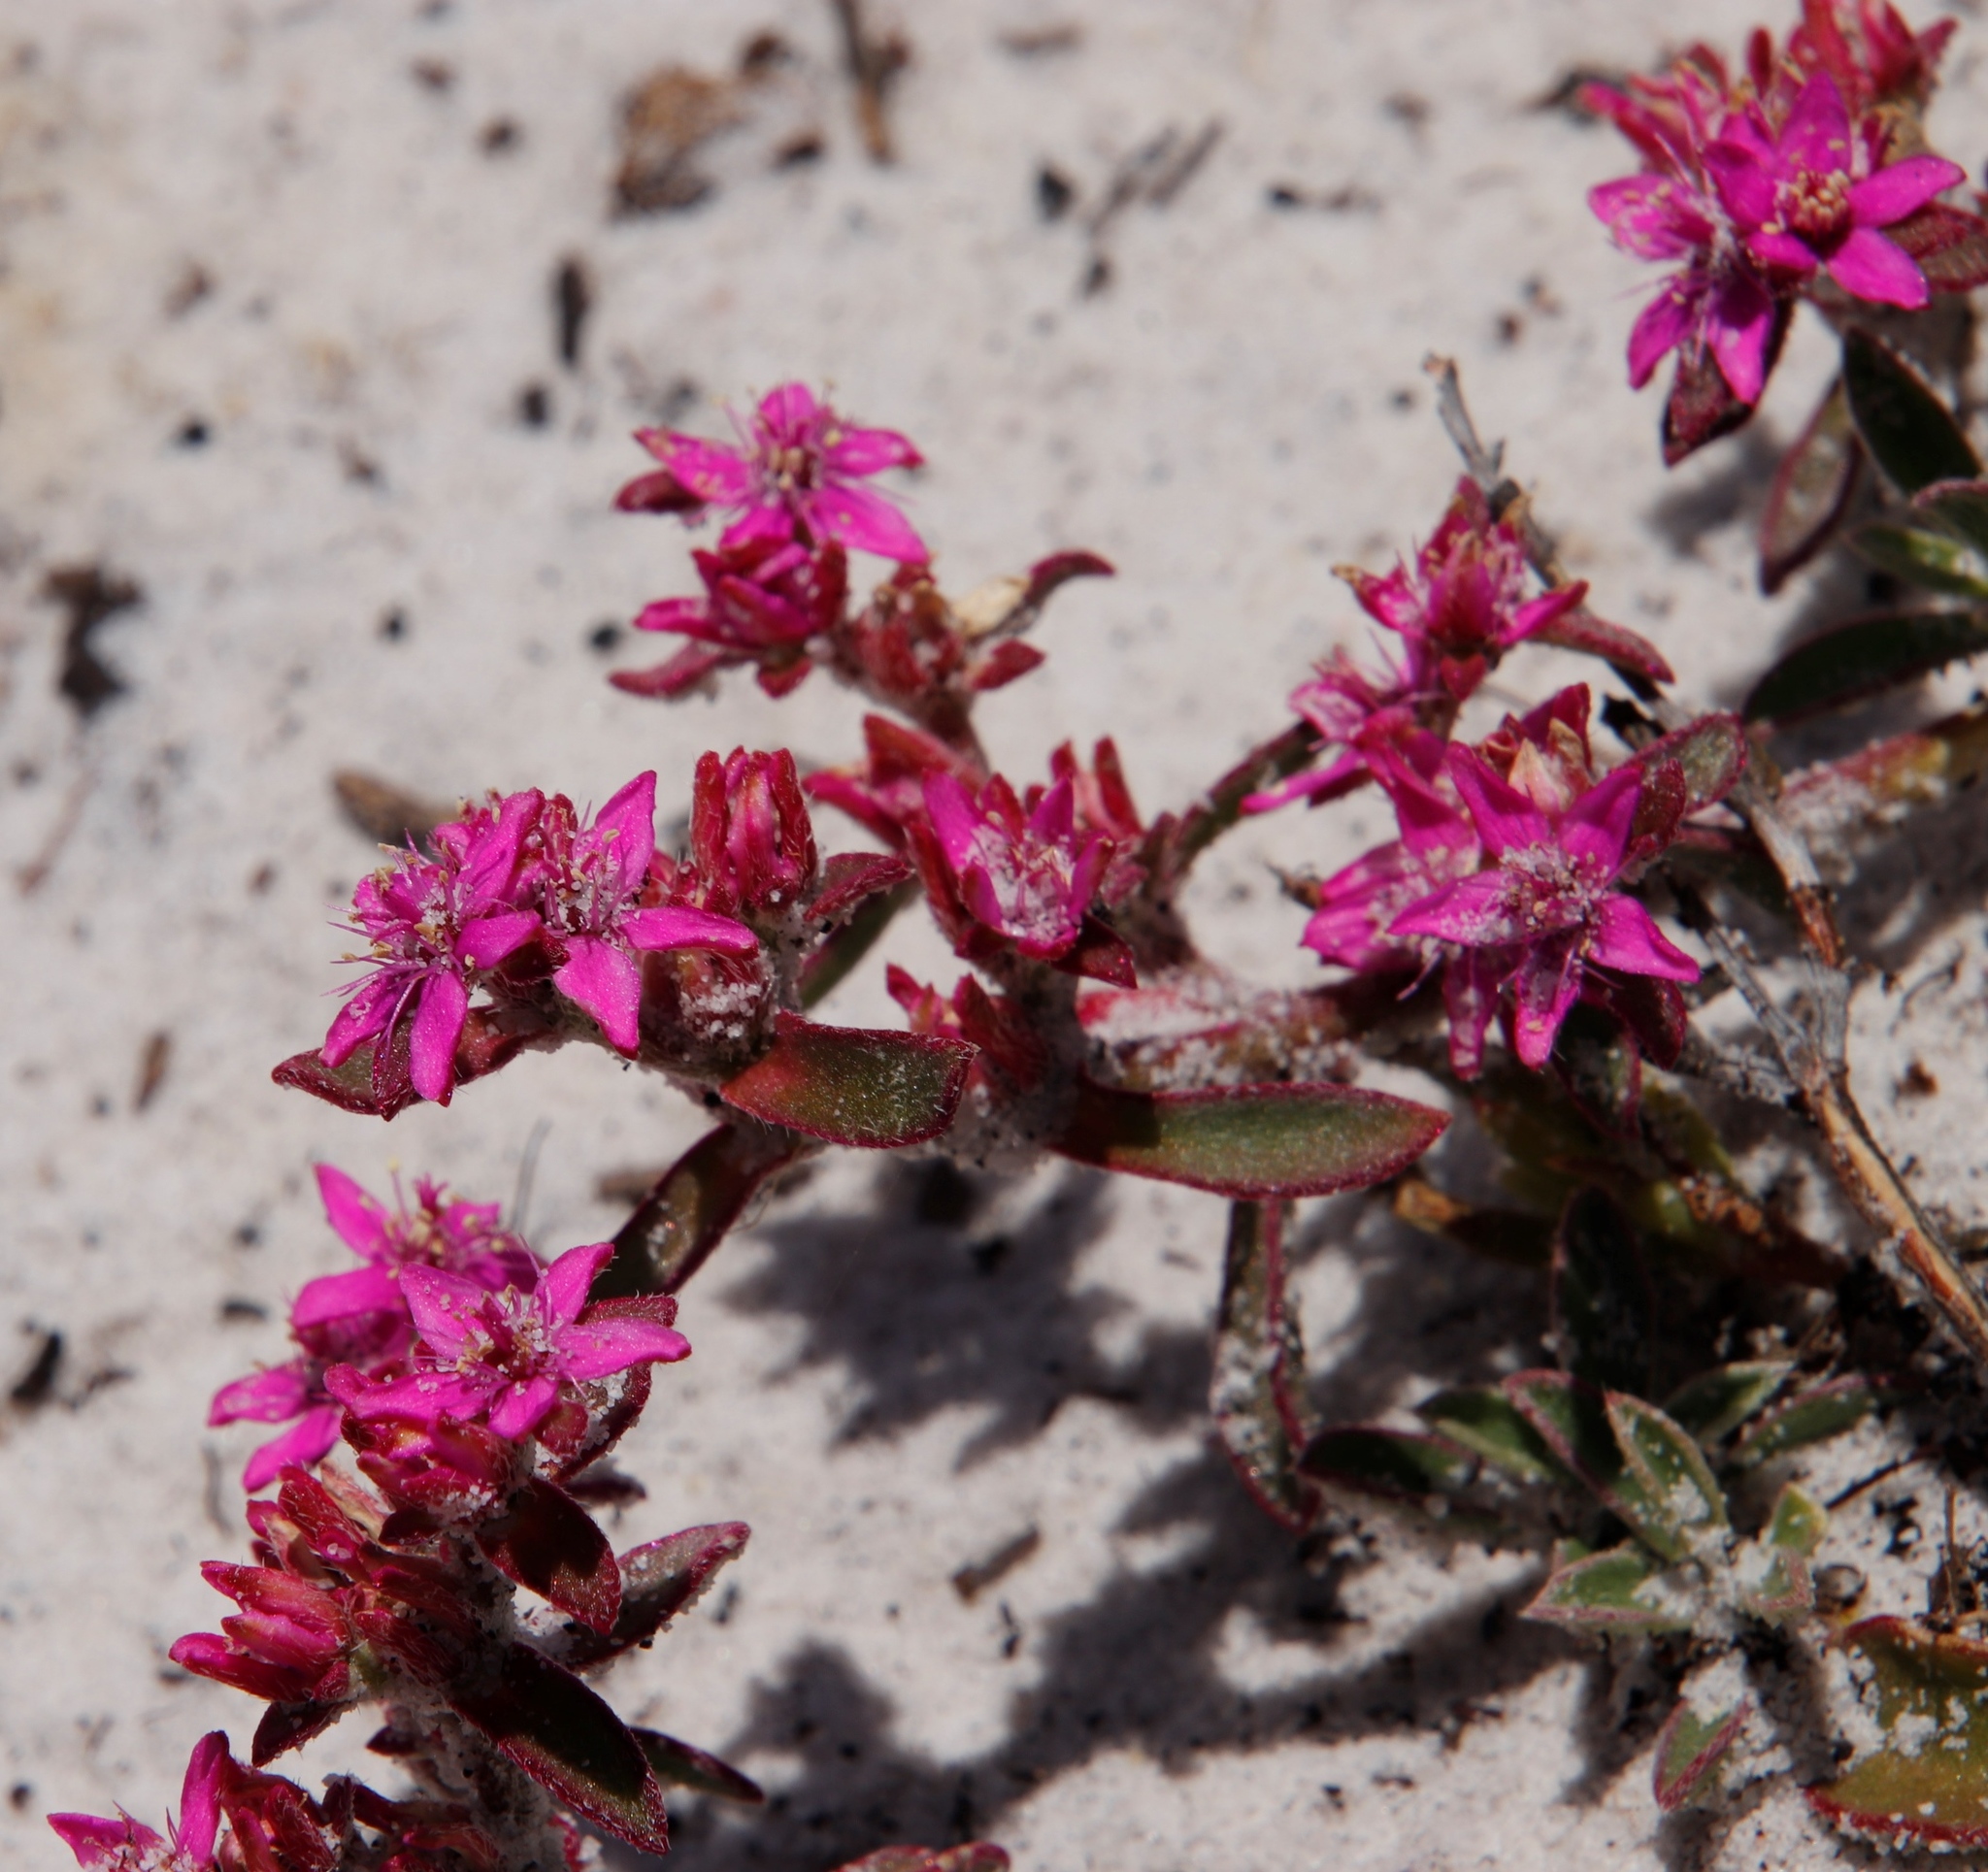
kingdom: Plantae
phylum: Tracheophyta
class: Magnoliopsida
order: Caryophyllales
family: Aizoaceae
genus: Aizoon
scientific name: Aizoon paniculatum
